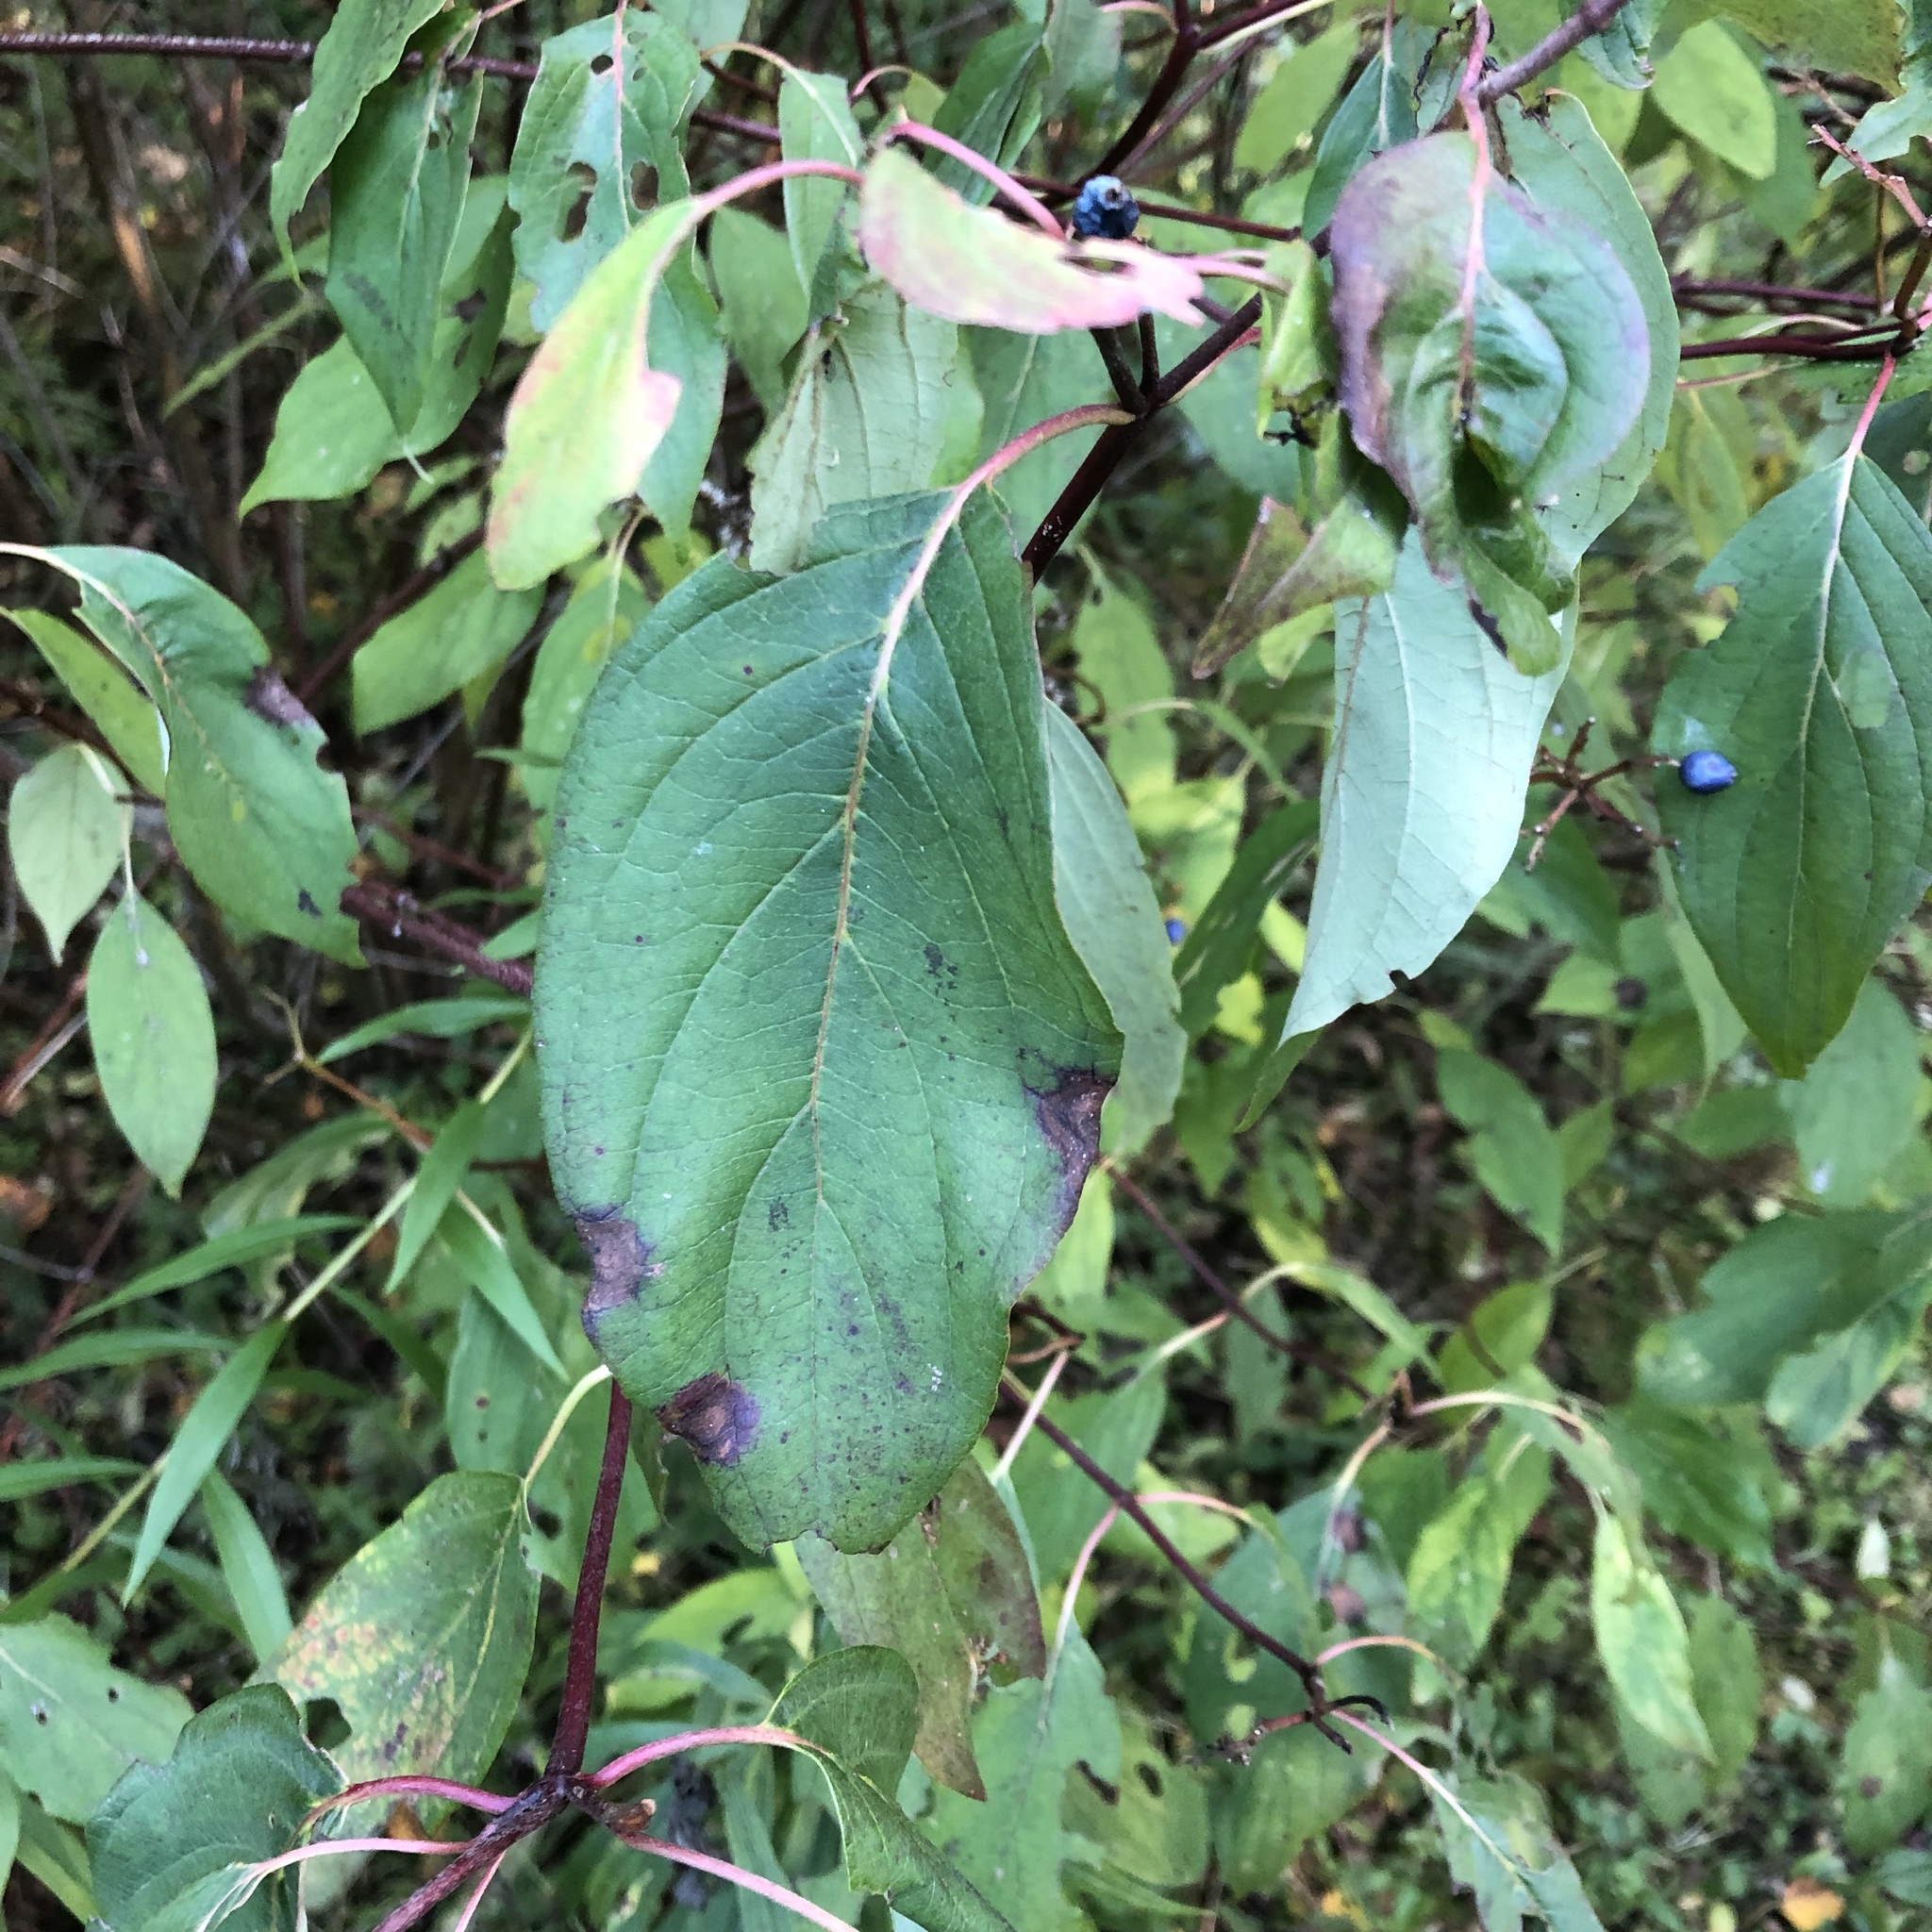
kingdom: Plantae
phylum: Tracheophyta
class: Magnoliopsida
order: Cornales
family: Cornaceae
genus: Cornus
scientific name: Cornus amomum
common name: Silky dogwood
